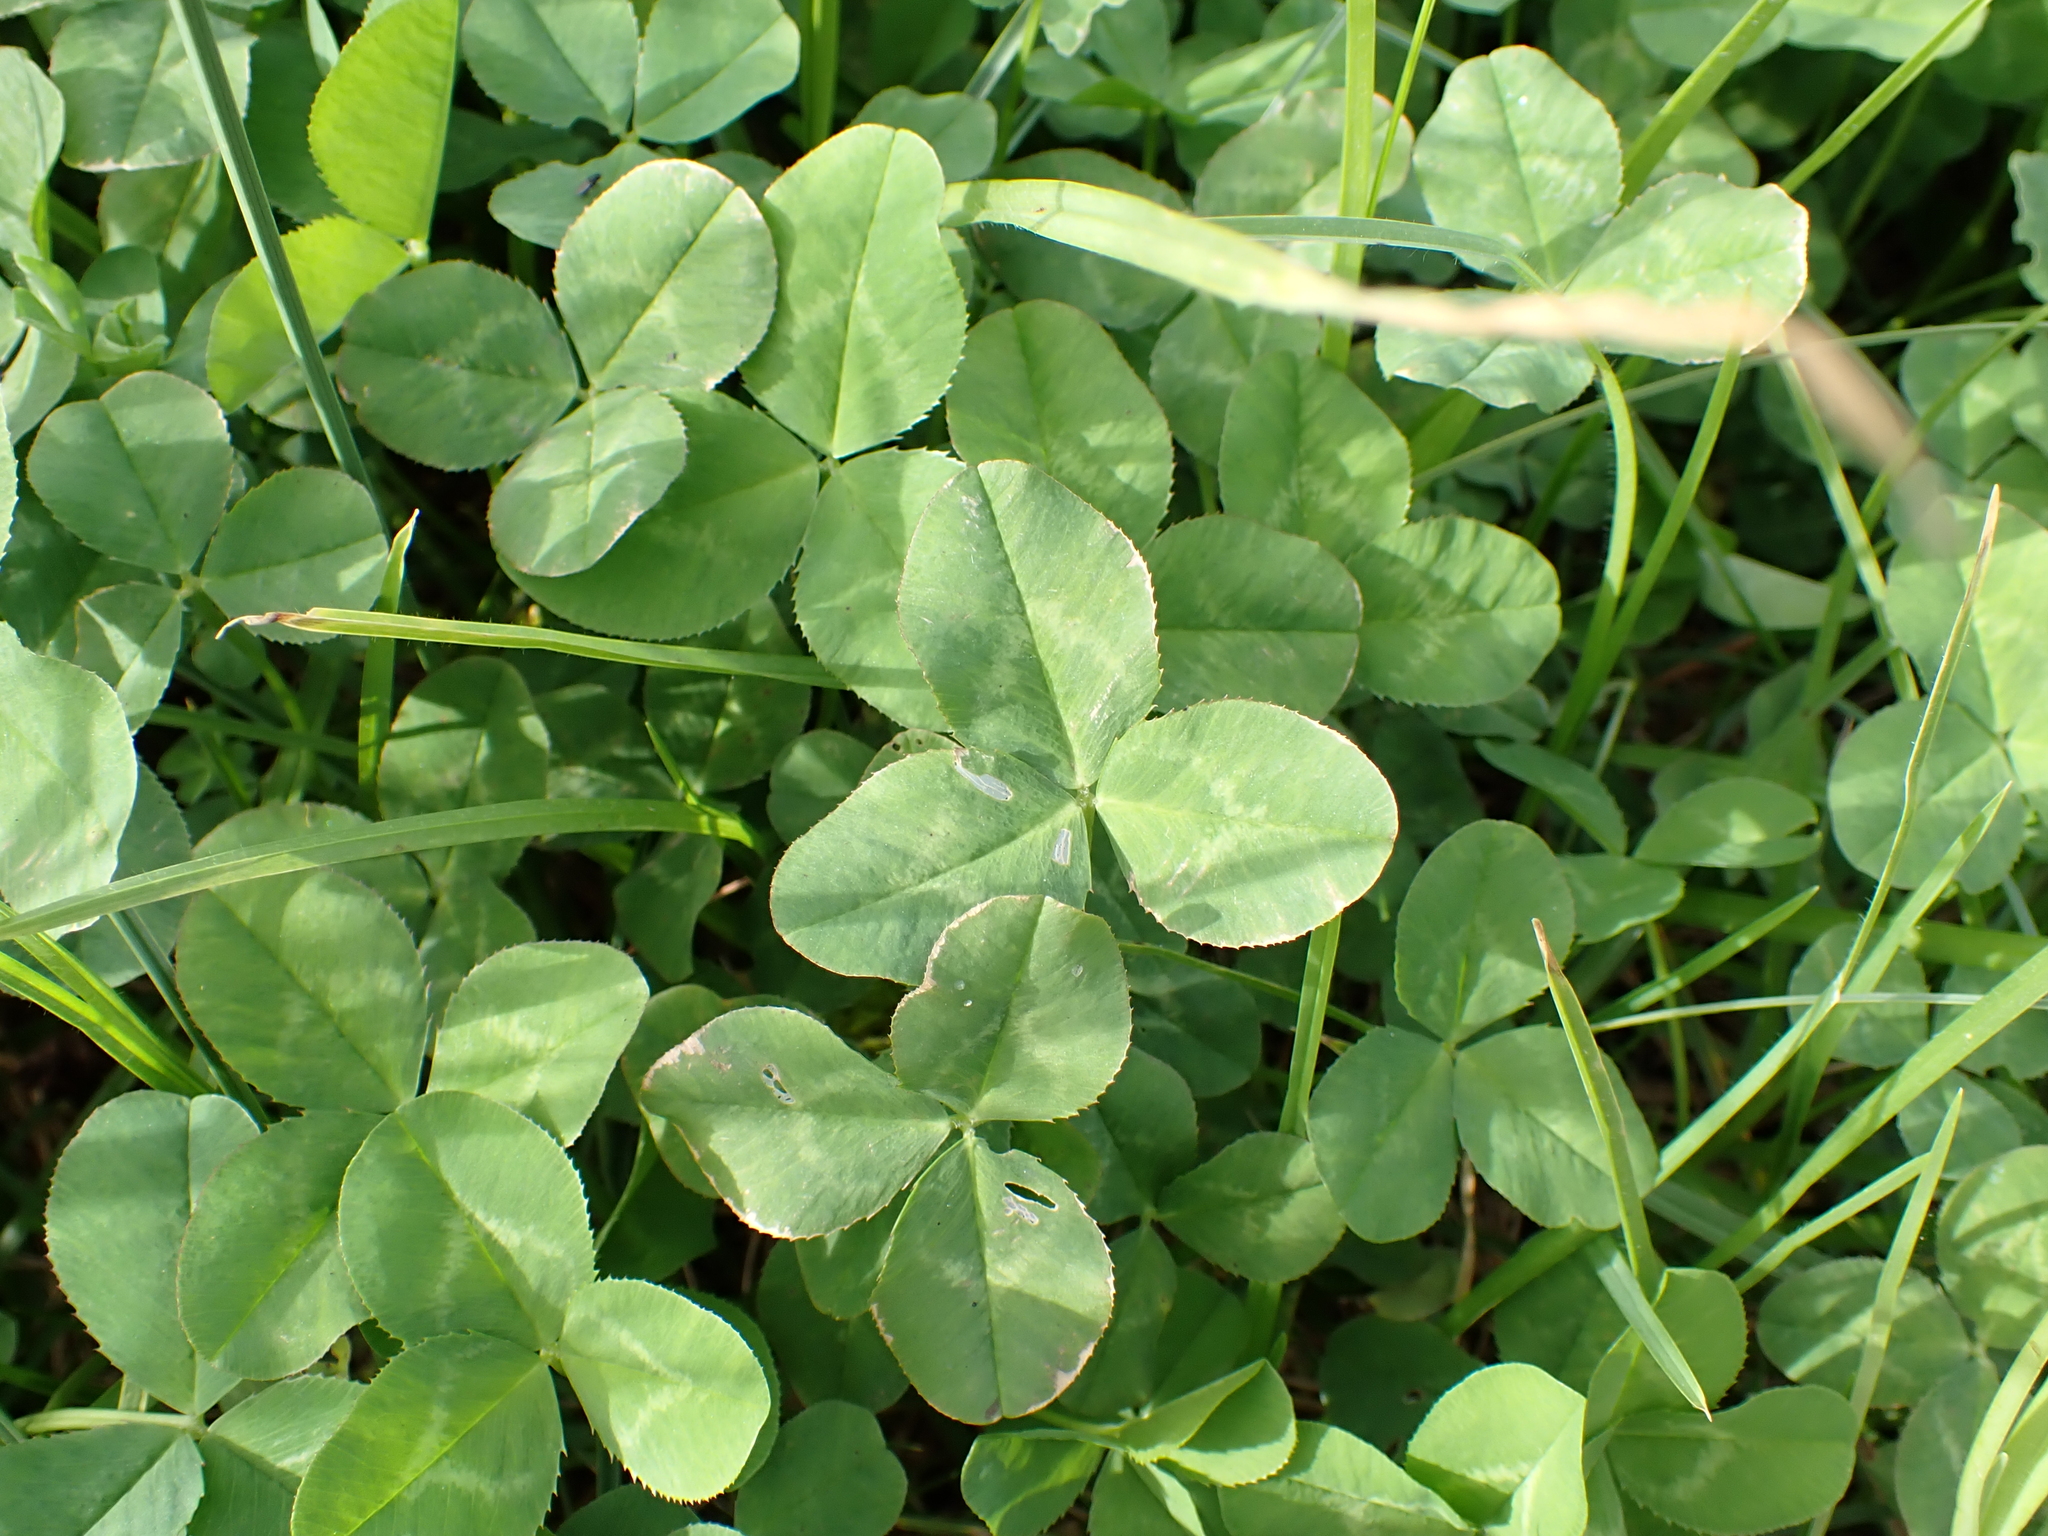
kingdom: Plantae
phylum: Tracheophyta
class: Magnoliopsida
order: Fabales
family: Fabaceae
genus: Trifolium
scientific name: Trifolium repens
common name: White clover
